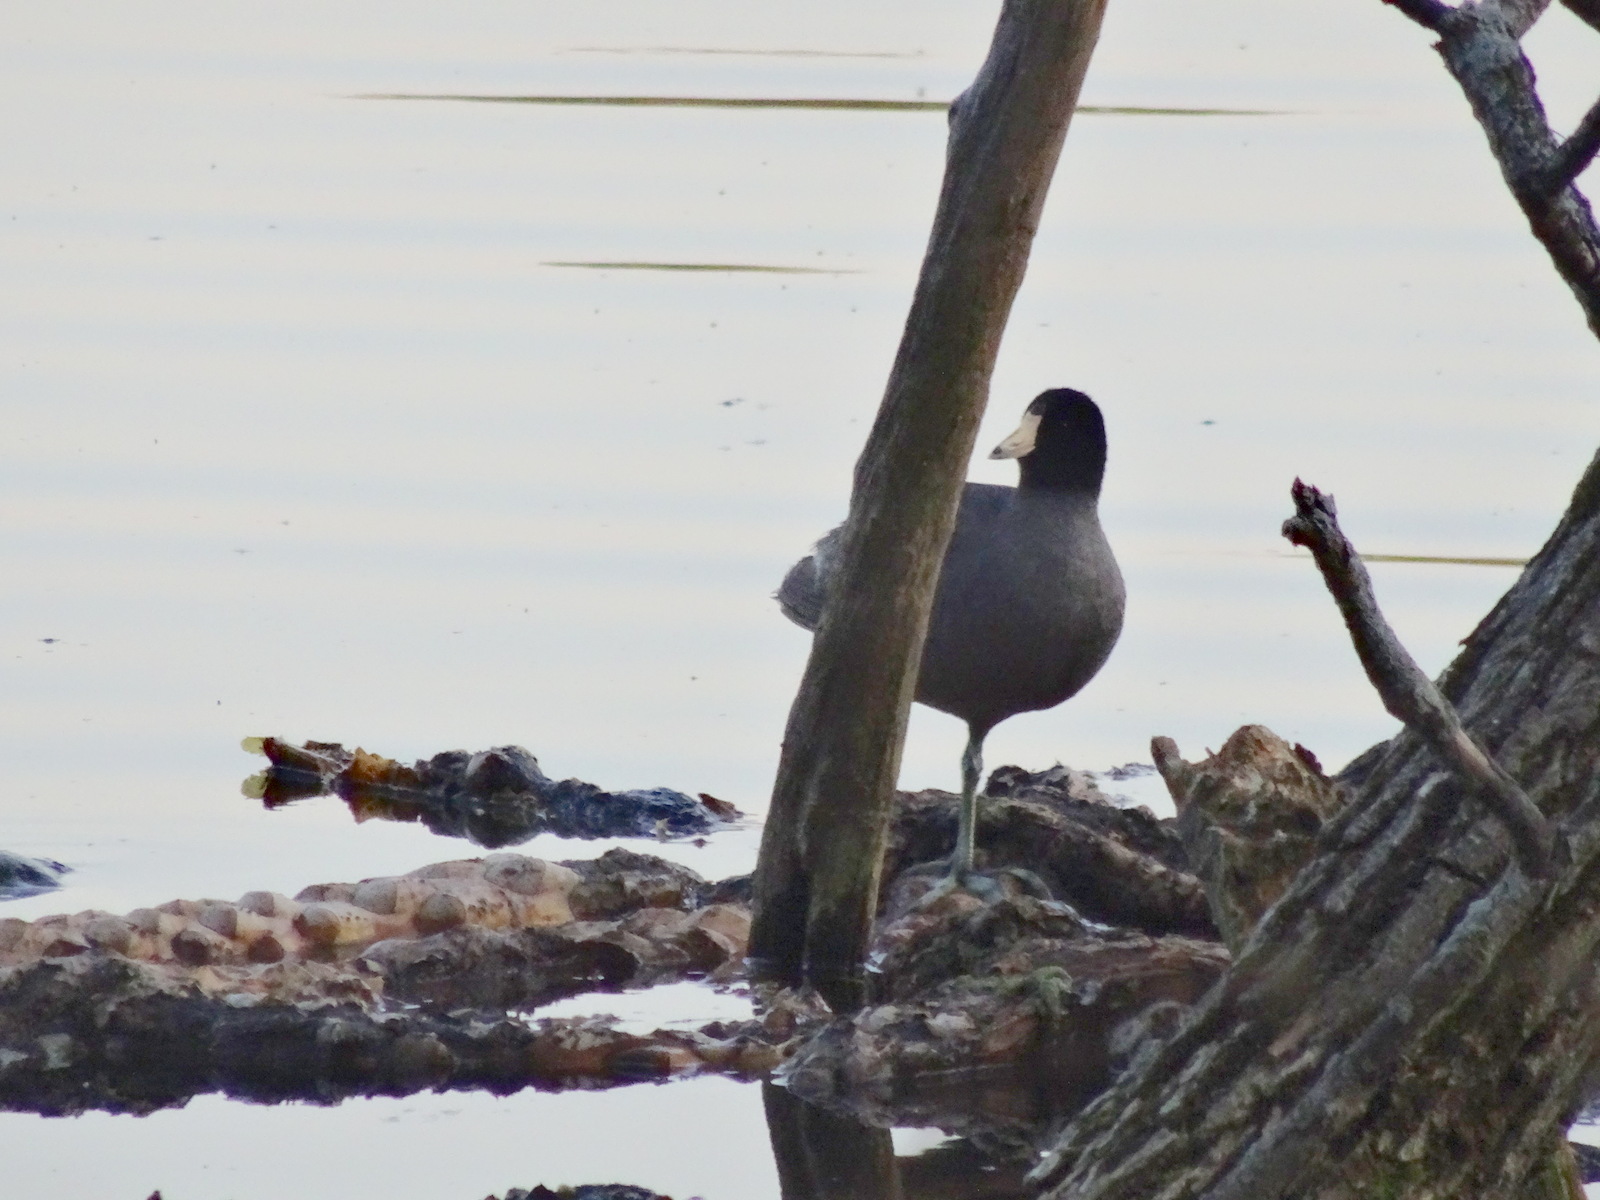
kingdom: Animalia
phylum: Chordata
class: Aves
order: Gruiformes
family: Rallidae
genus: Fulica
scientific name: Fulica americana
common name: American coot
